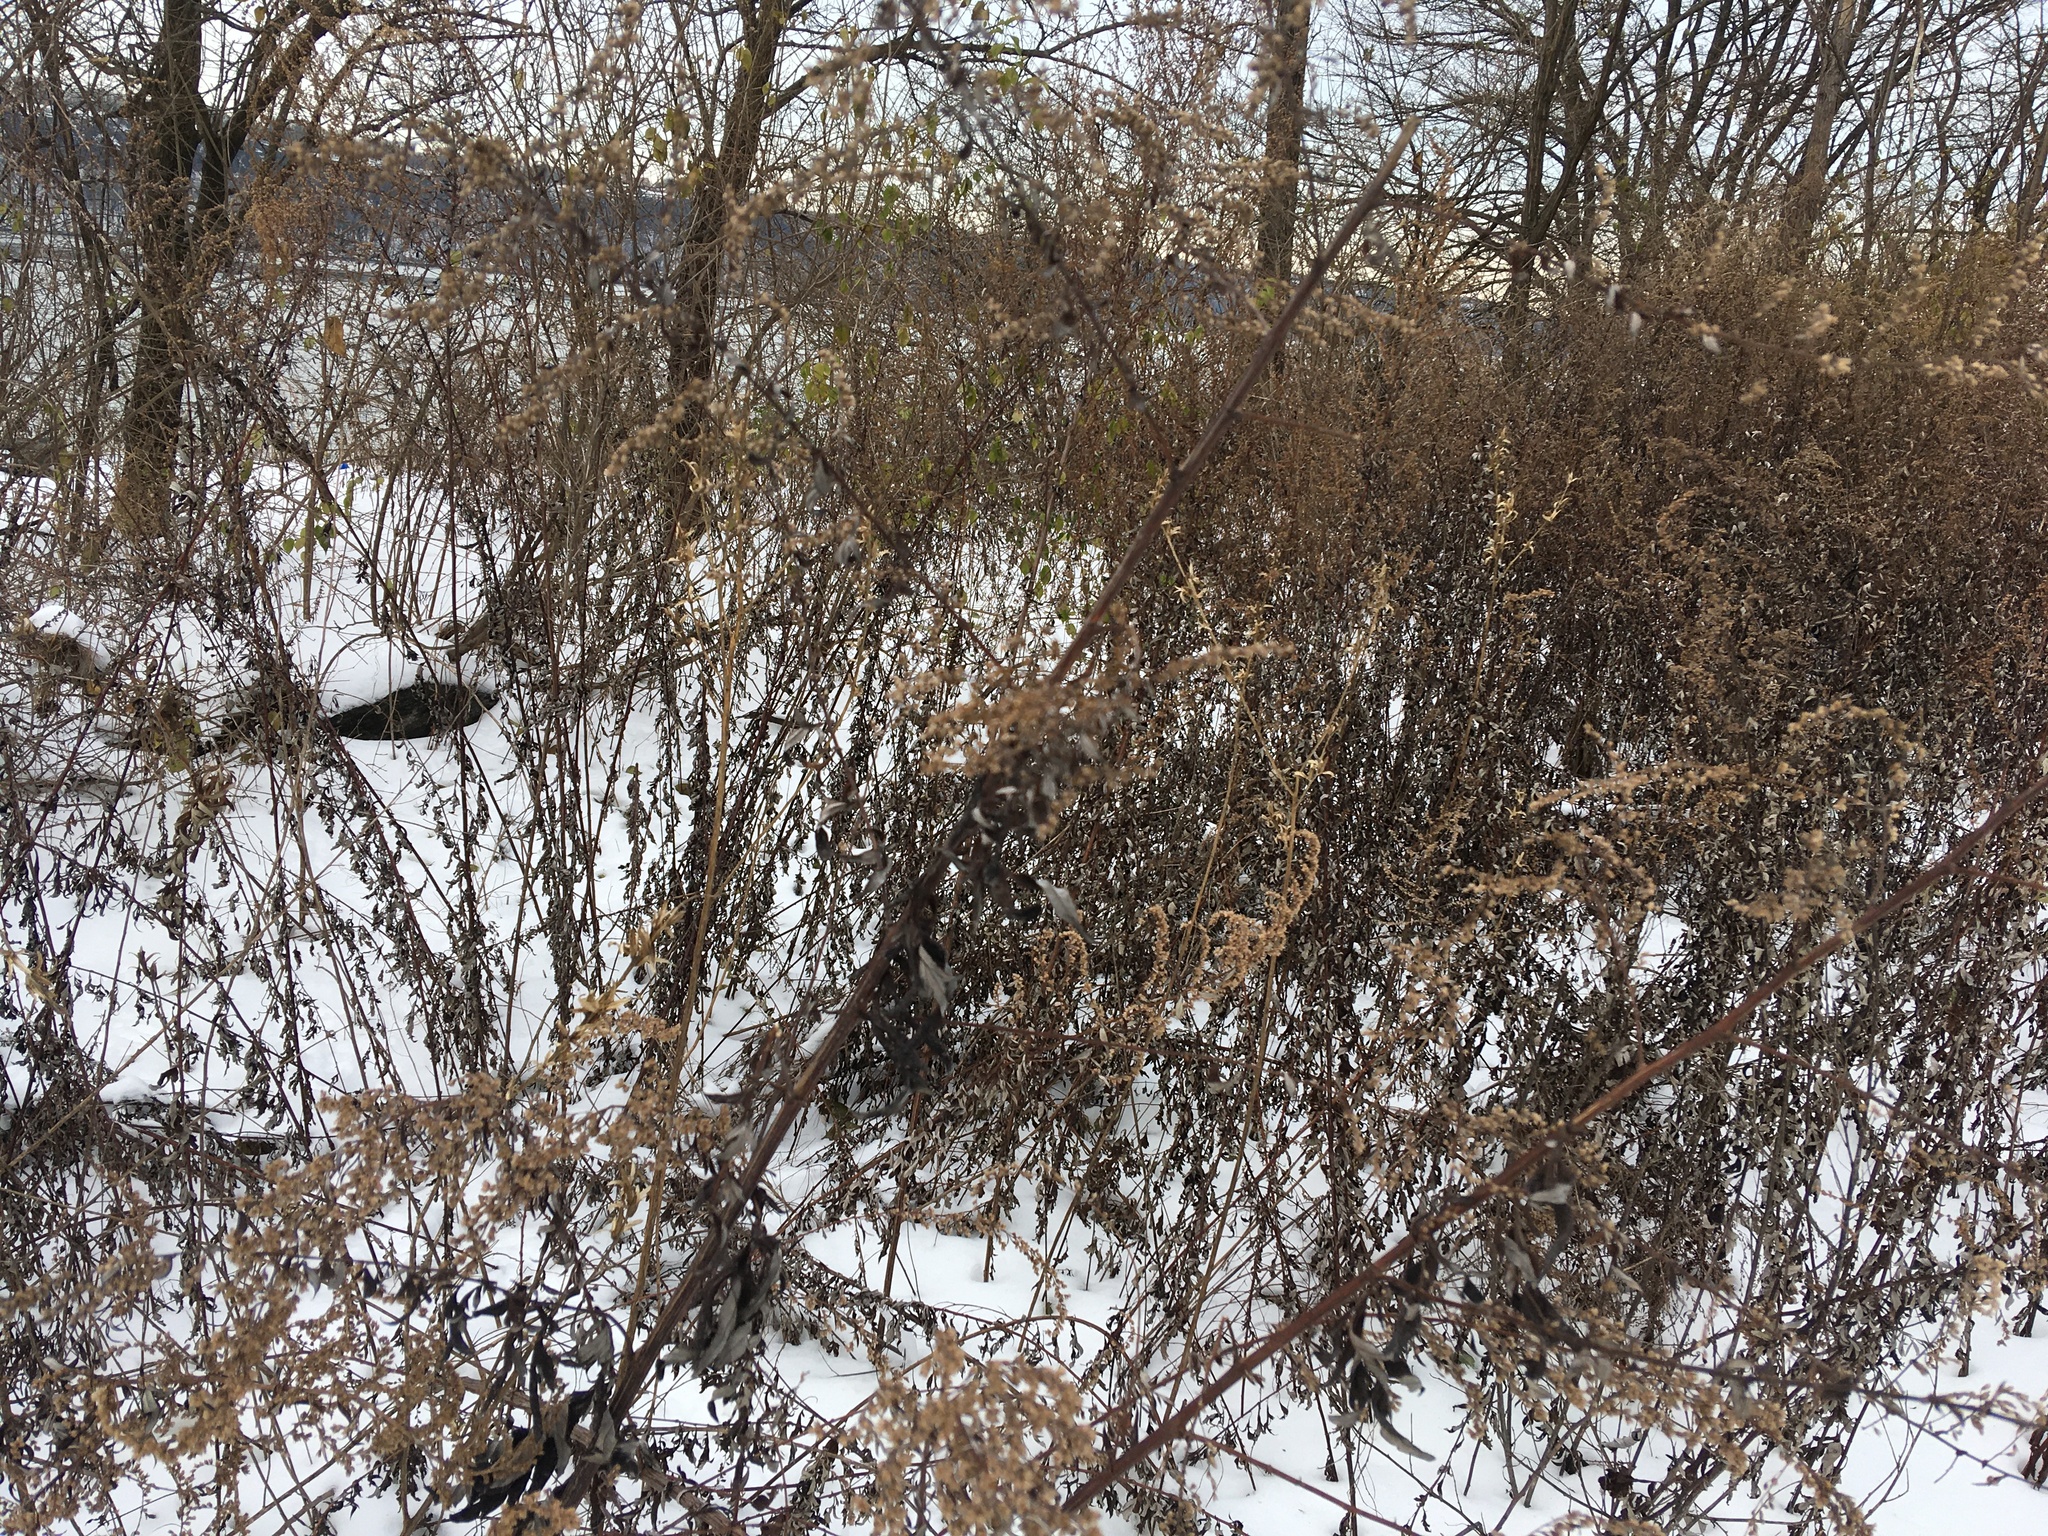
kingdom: Plantae
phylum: Tracheophyta
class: Magnoliopsida
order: Asterales
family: Asteraceae
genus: Artemisia
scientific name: Artemisia vulgaris
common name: Mugwort
